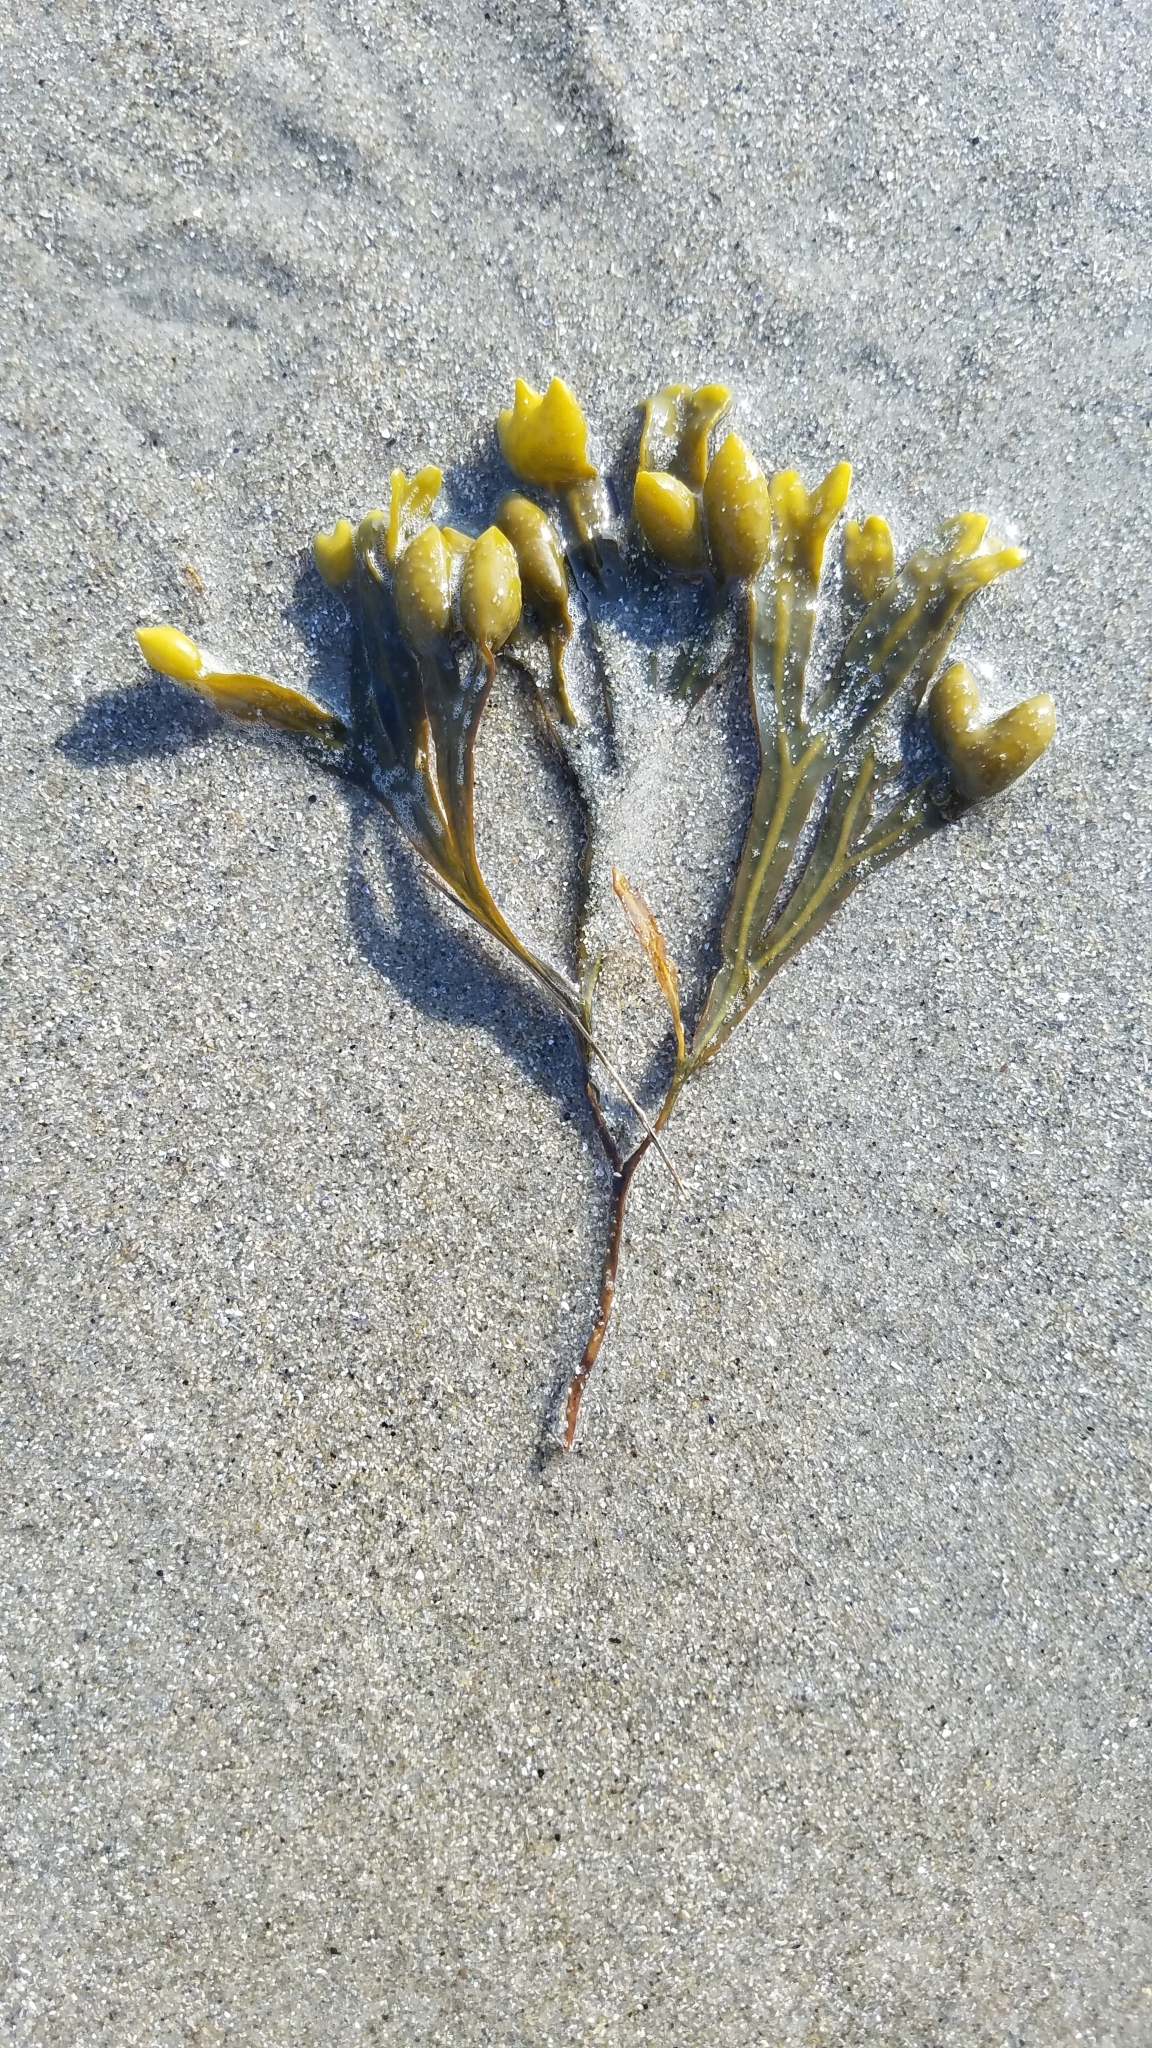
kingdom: Chromista
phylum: Ochrophyta
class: Phaeophyceae
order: Fucales
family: Fucaceae
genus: Fucus
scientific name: Fucus vesiculosus
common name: Bladder wrack
